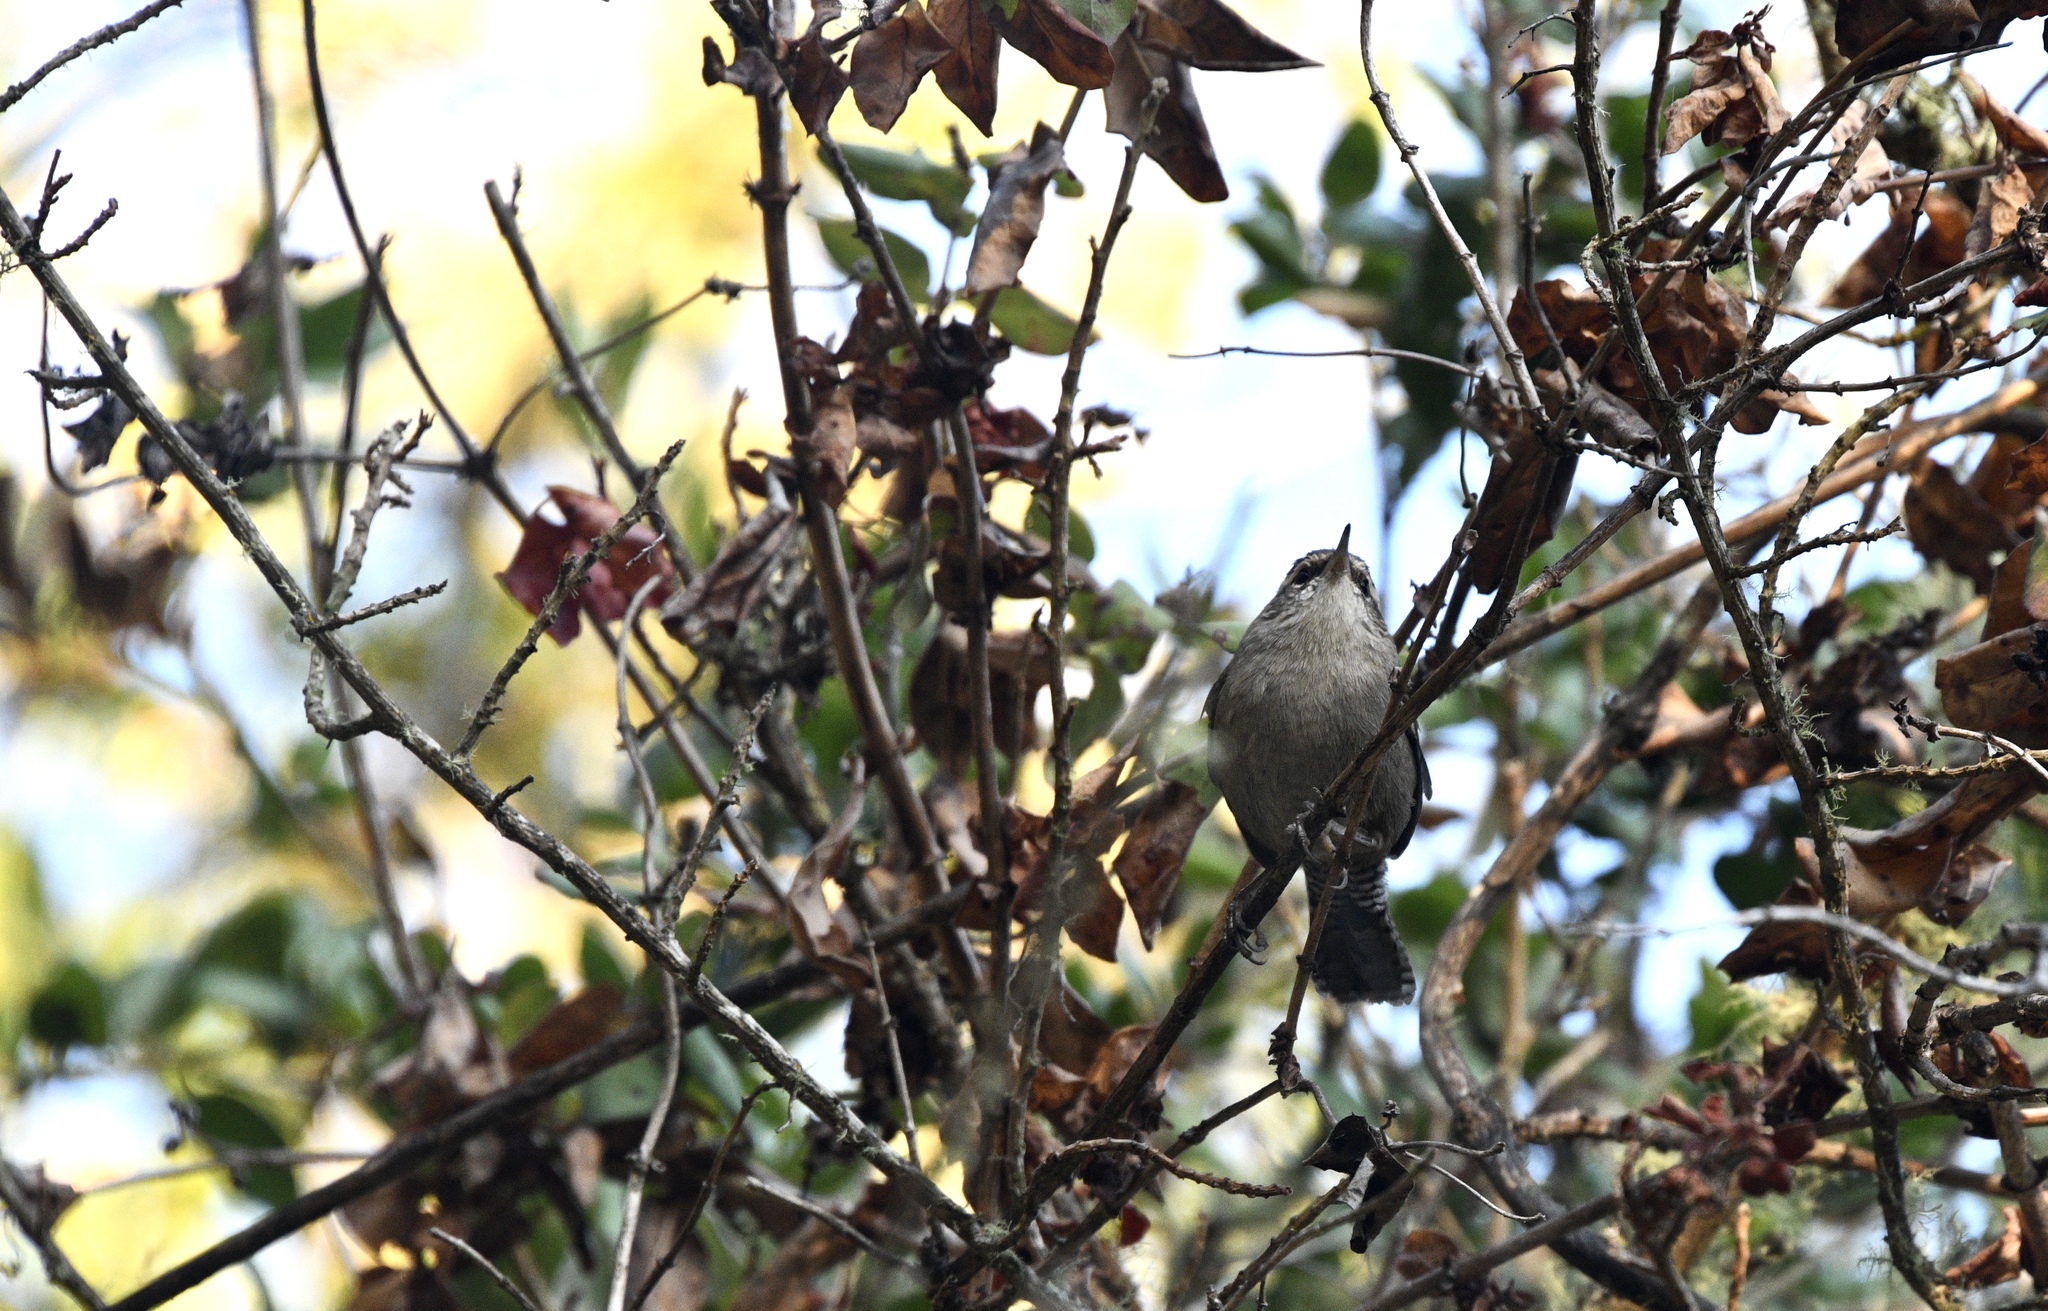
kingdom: Animalia
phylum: Chordata
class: Aves
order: Passeriformes
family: Troglodytidae
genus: Thryomanes
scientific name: Thryomanes bewickii
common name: Bewick's wren
